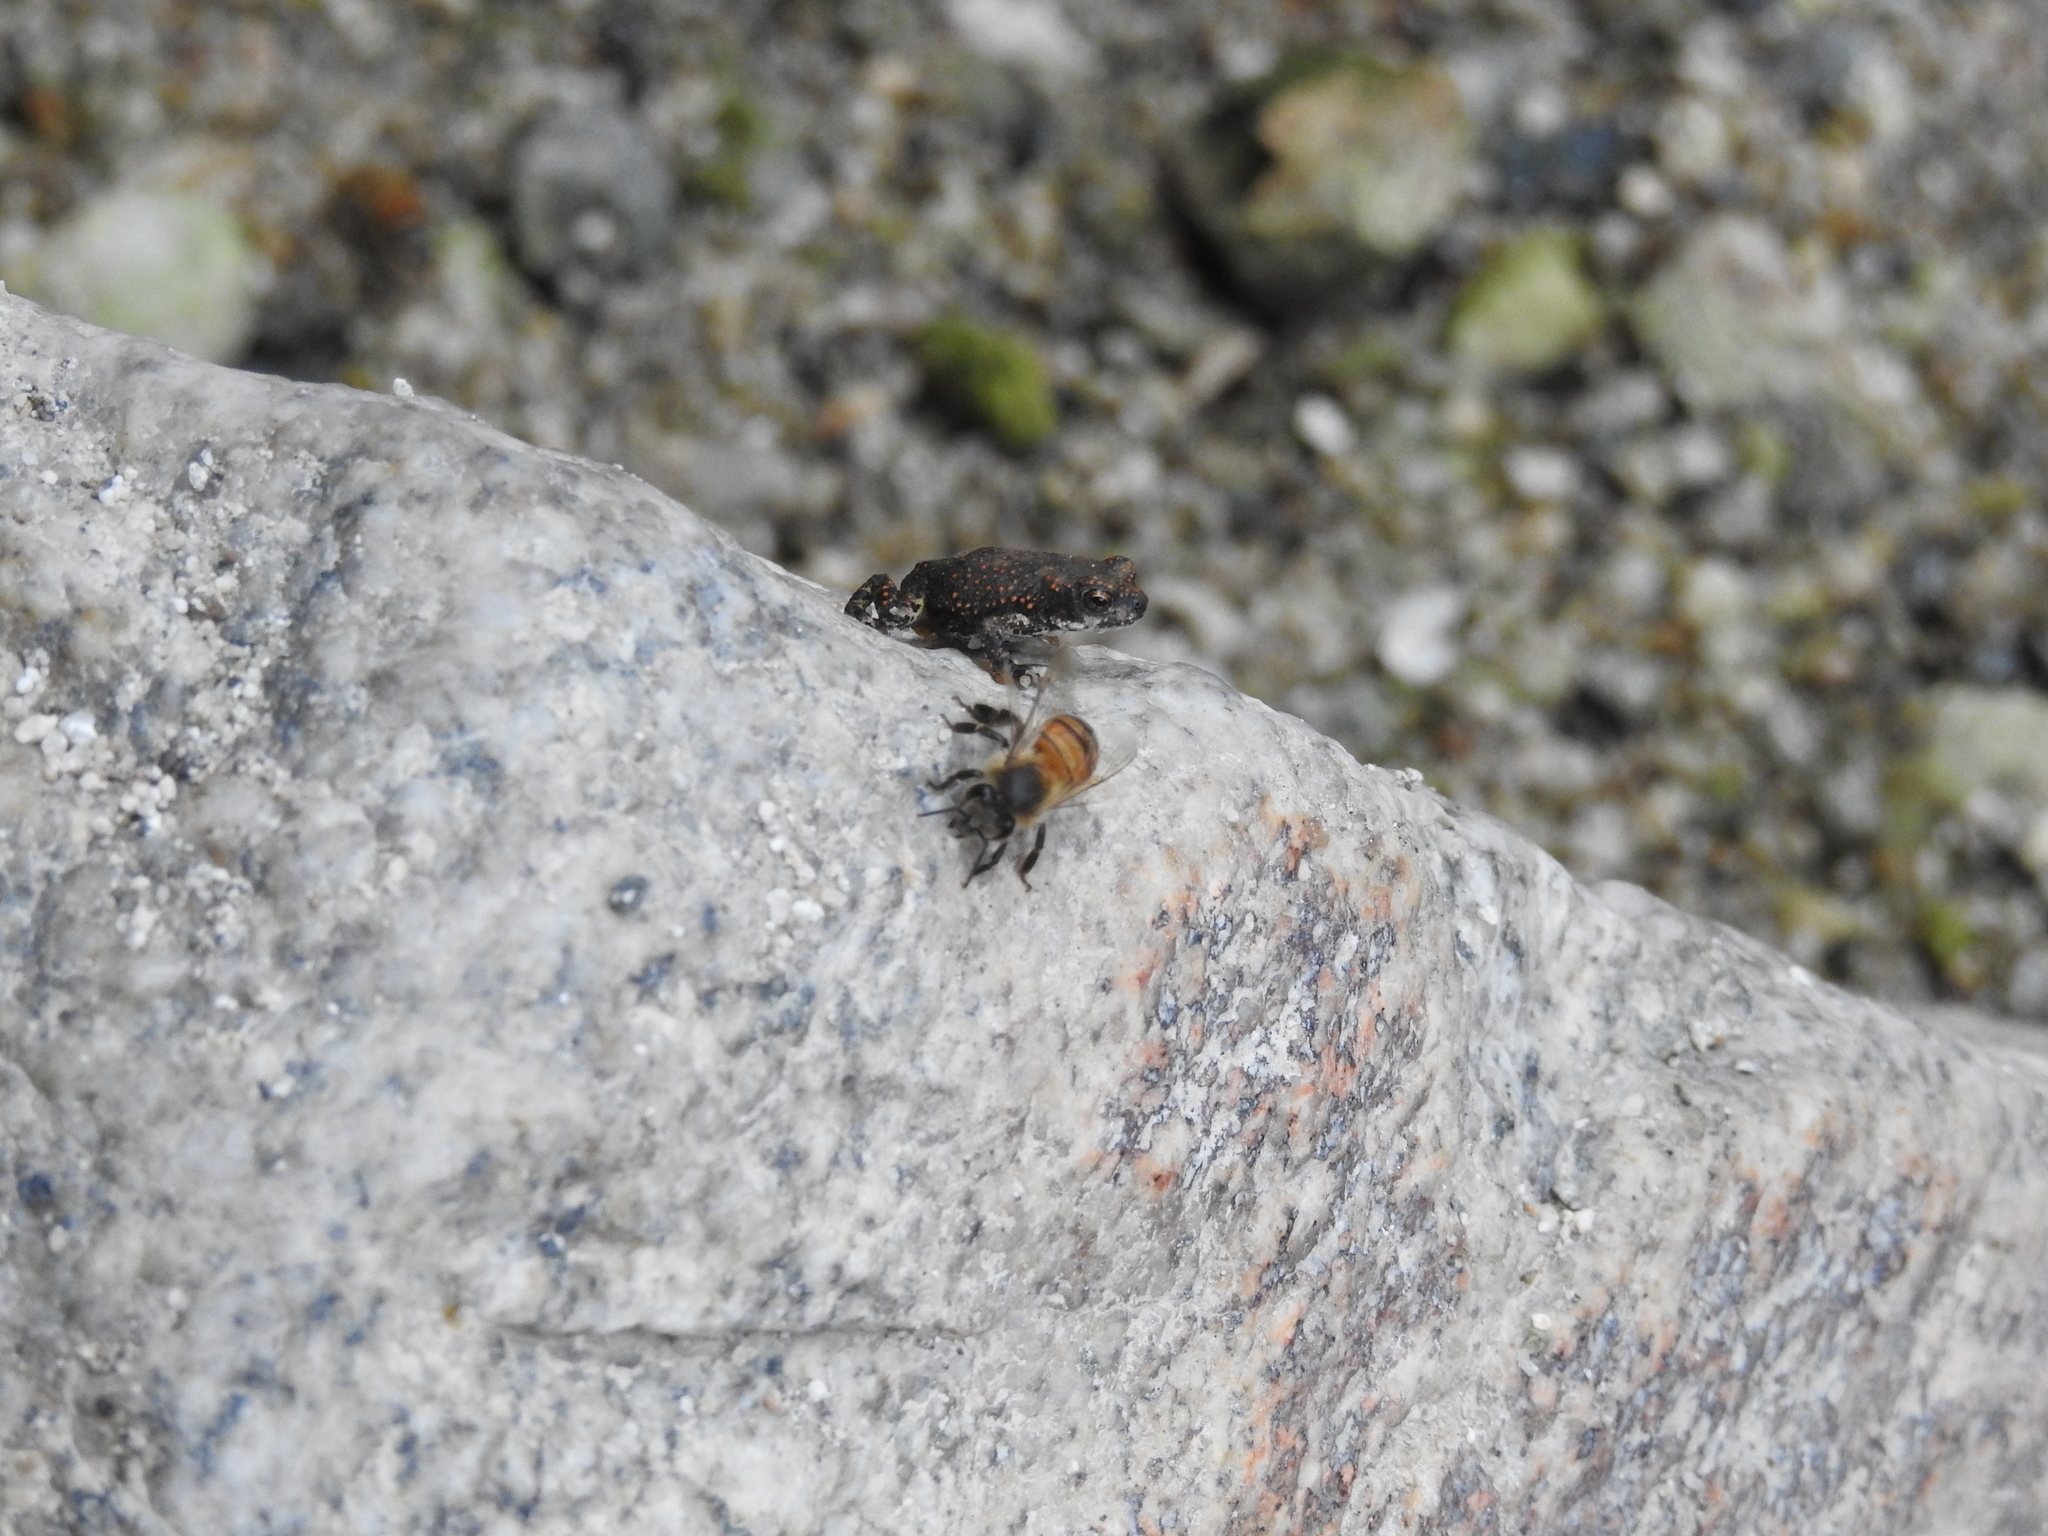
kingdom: Animalia
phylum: Chordata
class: Amphibia
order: Anura
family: Bufonidae
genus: Anaxyrus
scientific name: Anaxyrus punctatus
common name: Red-spotted toad
